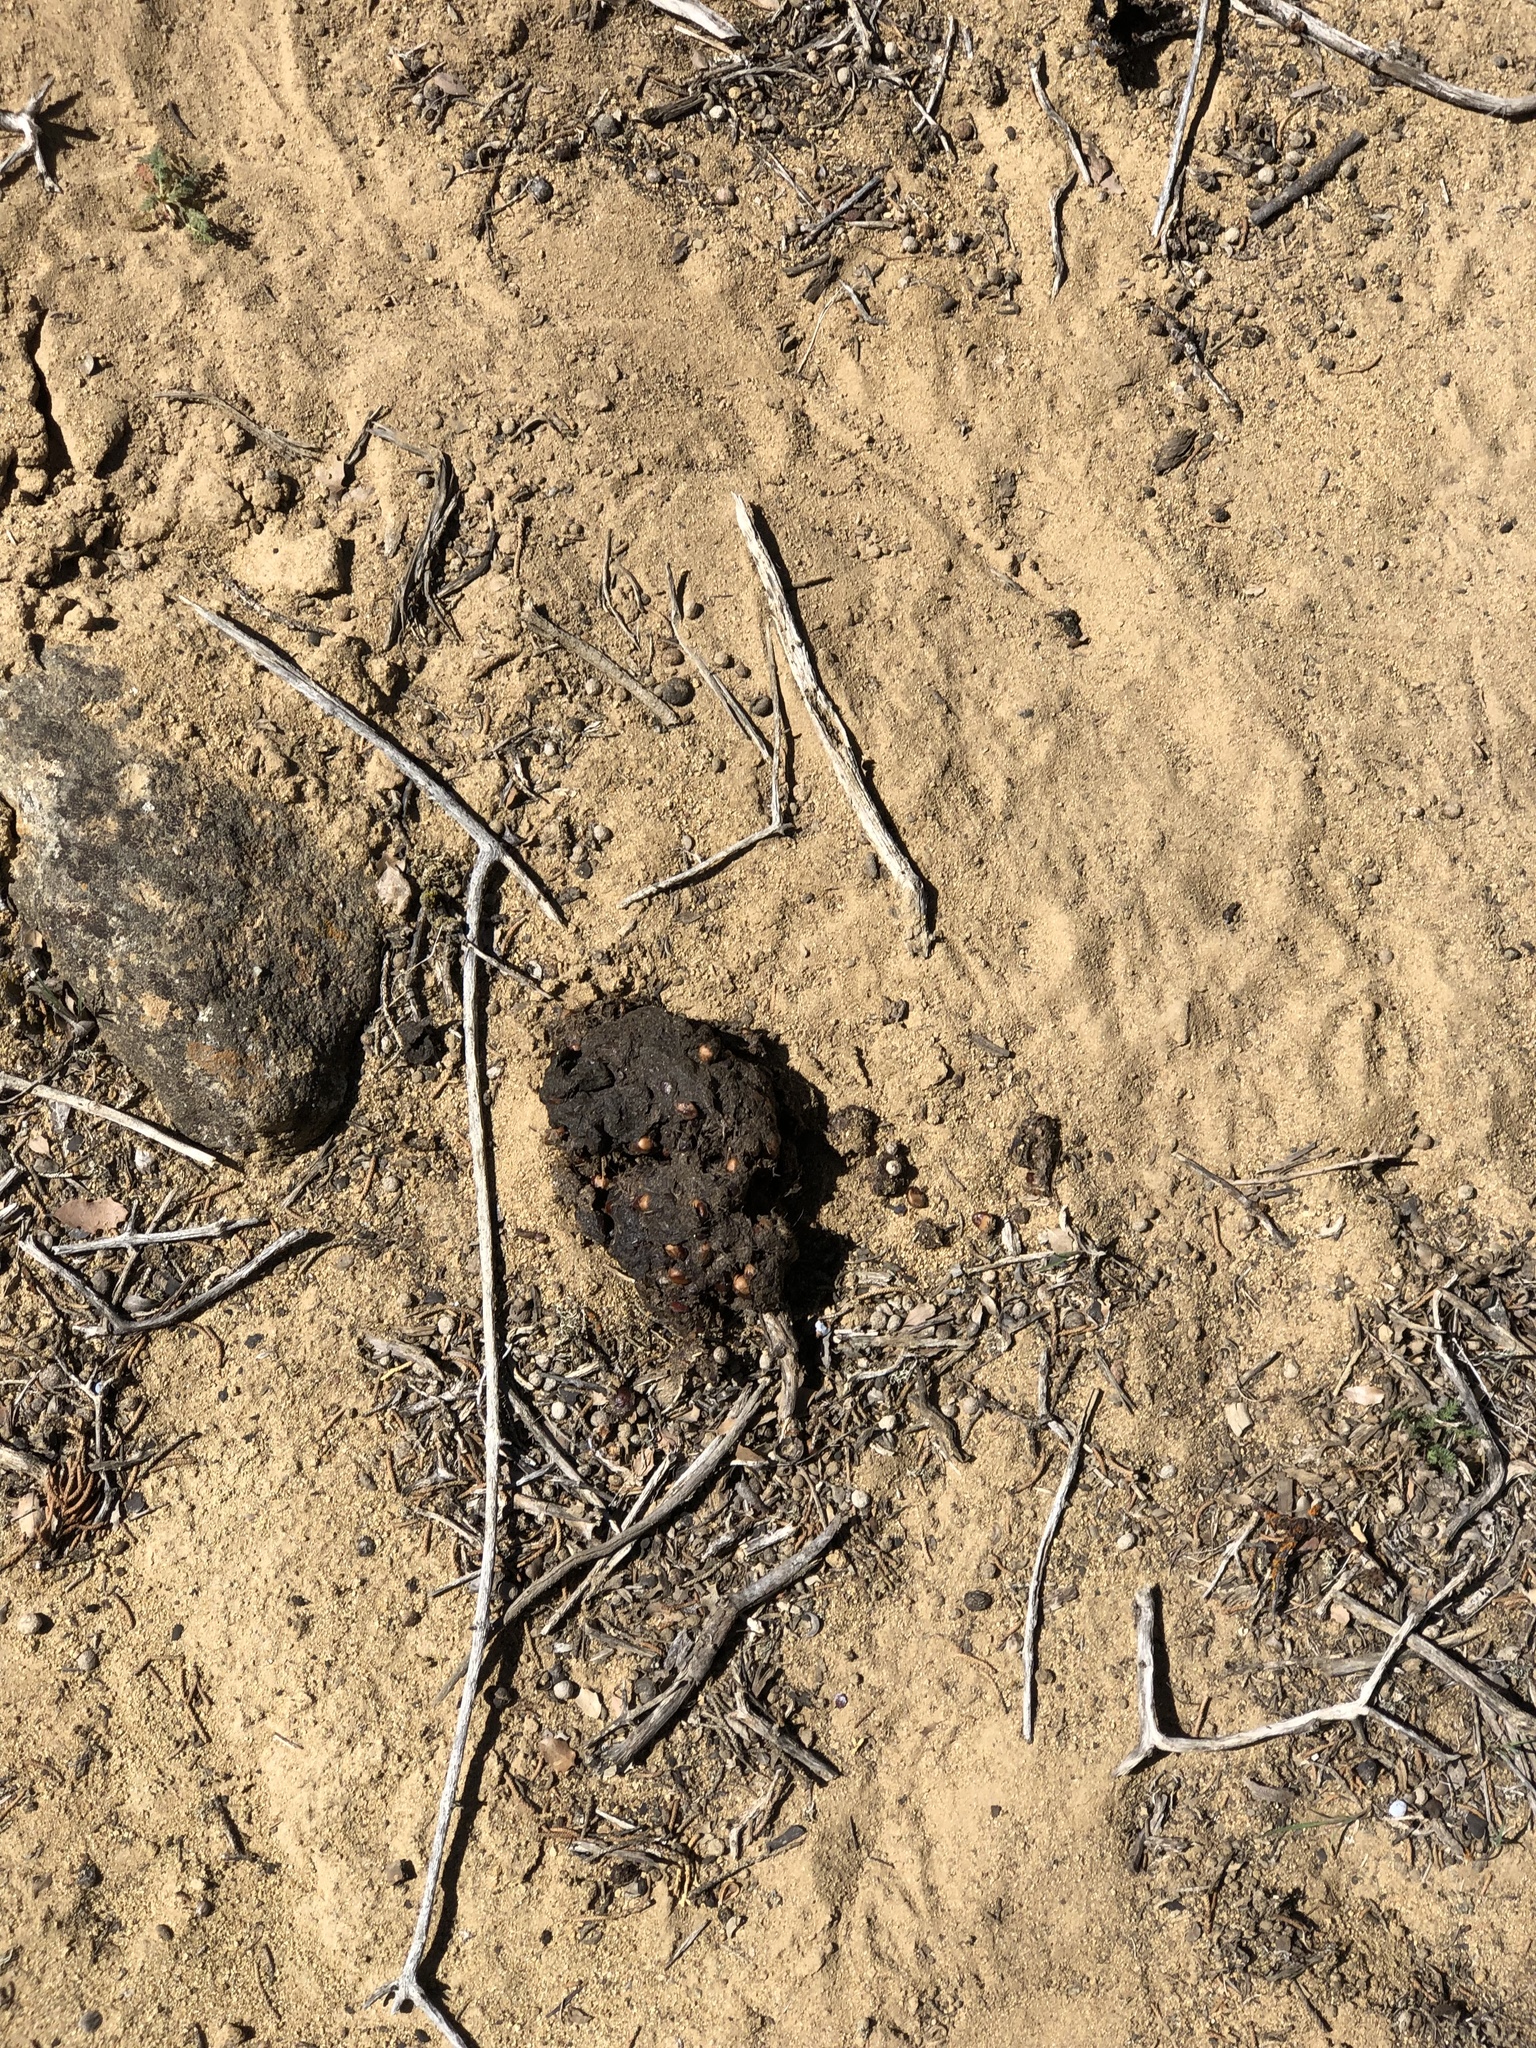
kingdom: Animalia
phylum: Chordata
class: Mammalia
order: Carnivora
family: Ursidae
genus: Ursus
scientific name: Ursus americanus
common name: American black bear
